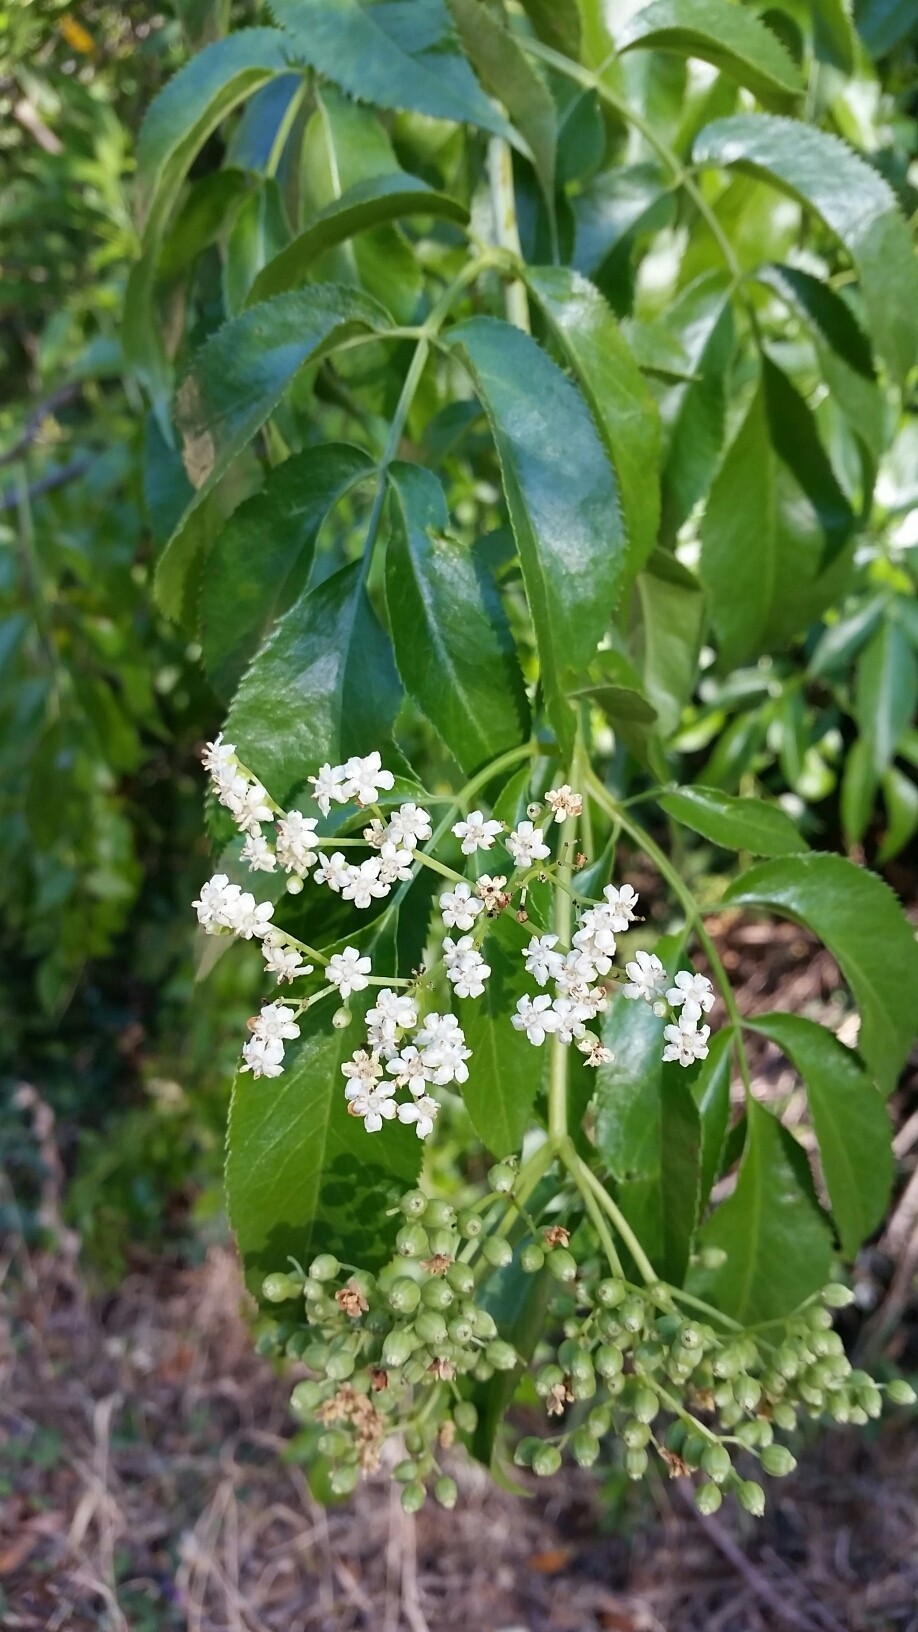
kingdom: Plantae
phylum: Tracheophyta
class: Magnoliopsida
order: Dipsacales
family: Viburnaceae
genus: Sambucus
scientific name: Sambucus cerulea
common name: Blue elder
